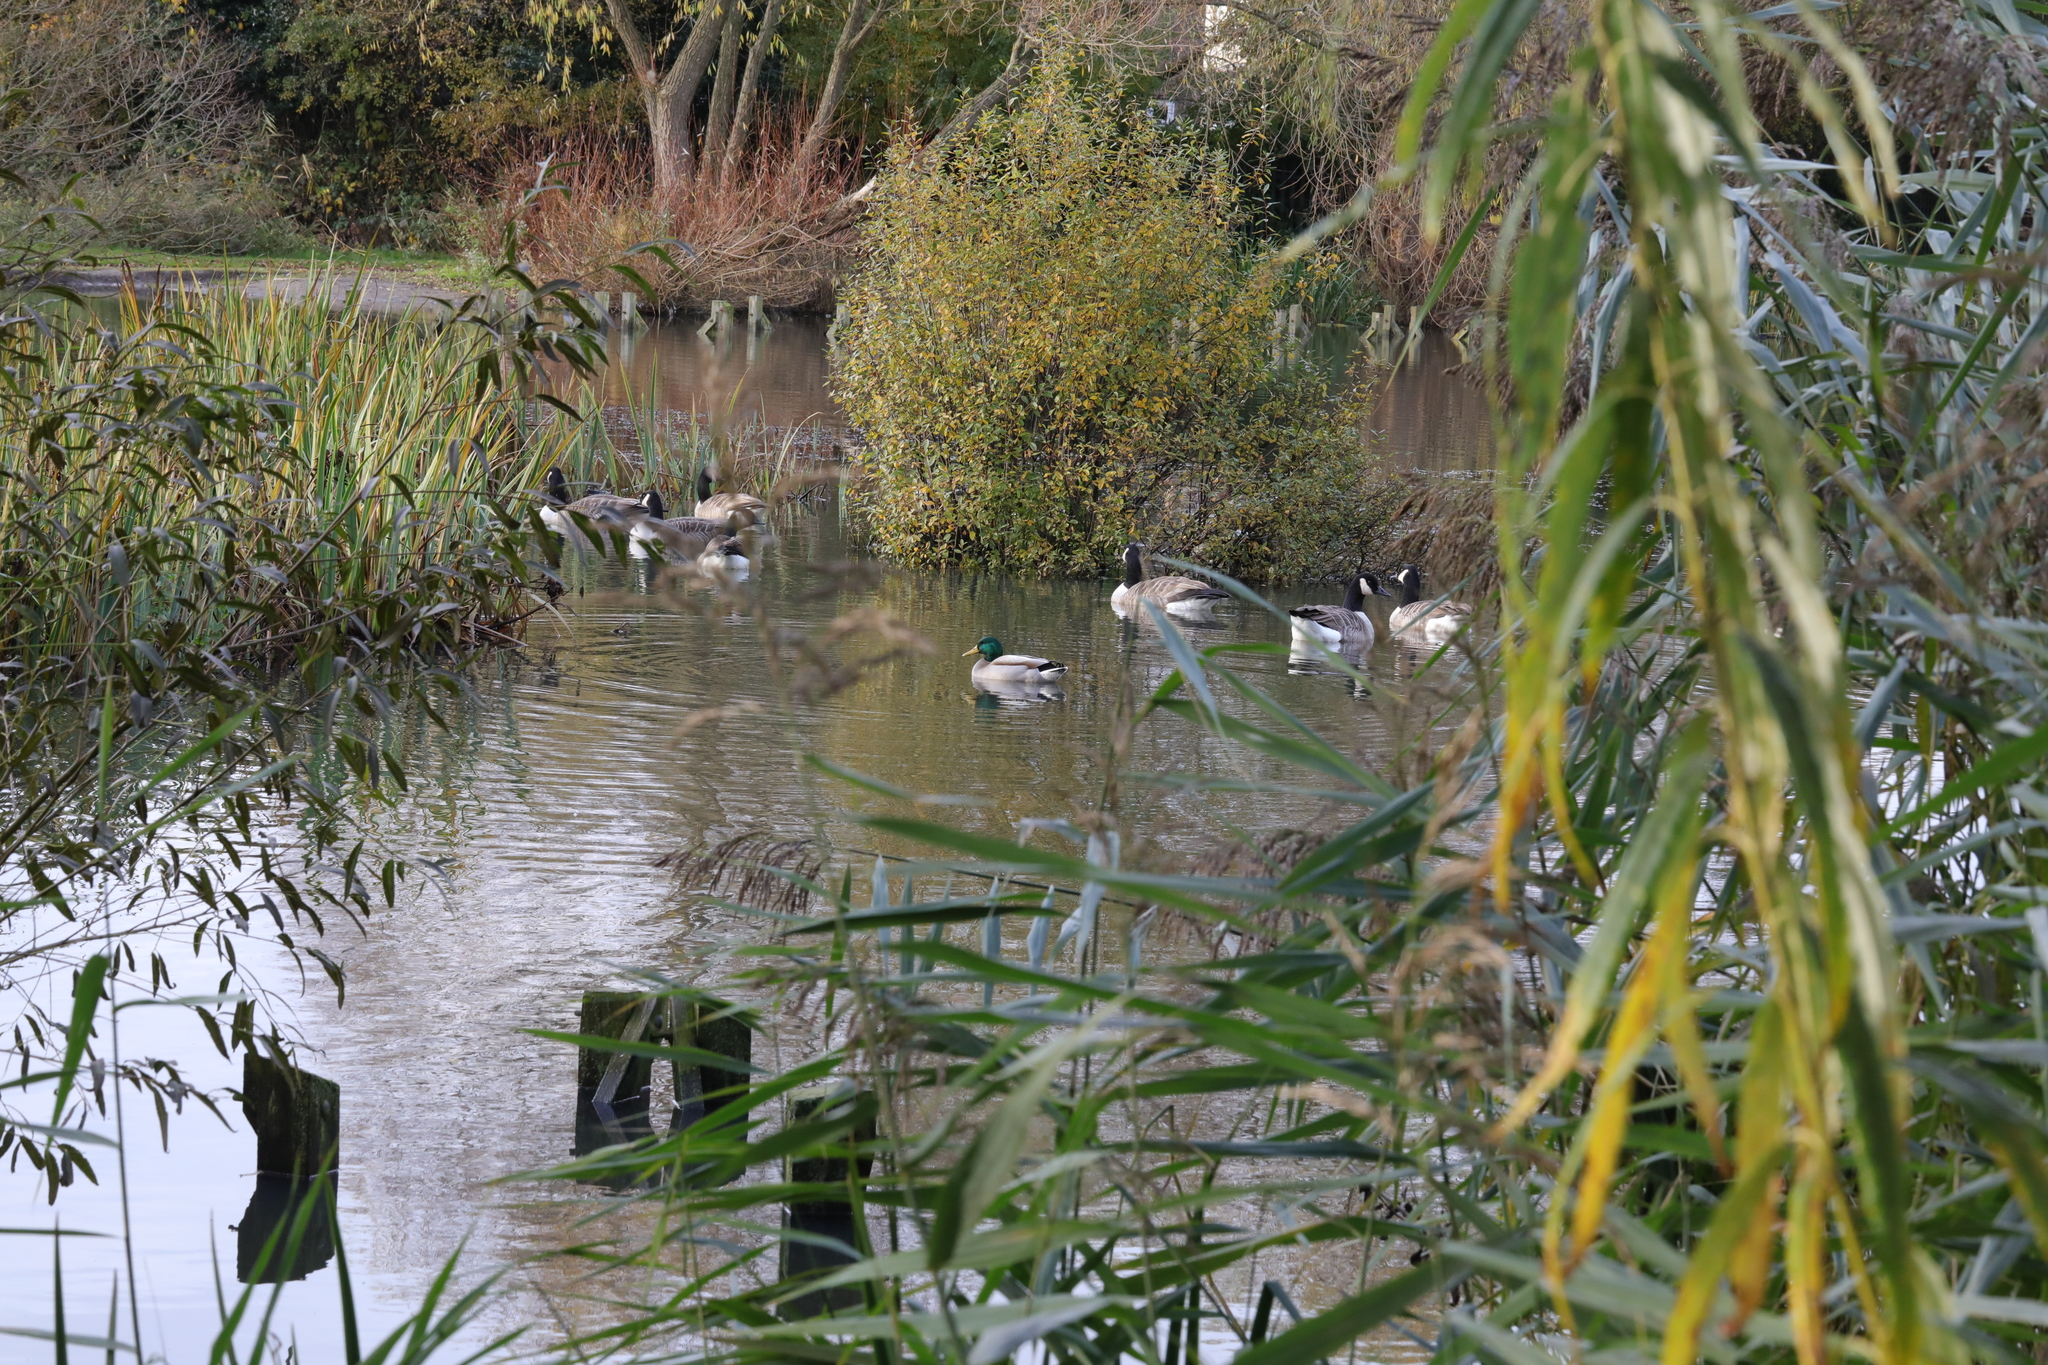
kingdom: Animalia
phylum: Chordata
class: Aves
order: Anseriformes
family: Anatidae
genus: Anas
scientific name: Anas platyrhynchos
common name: Mallard
